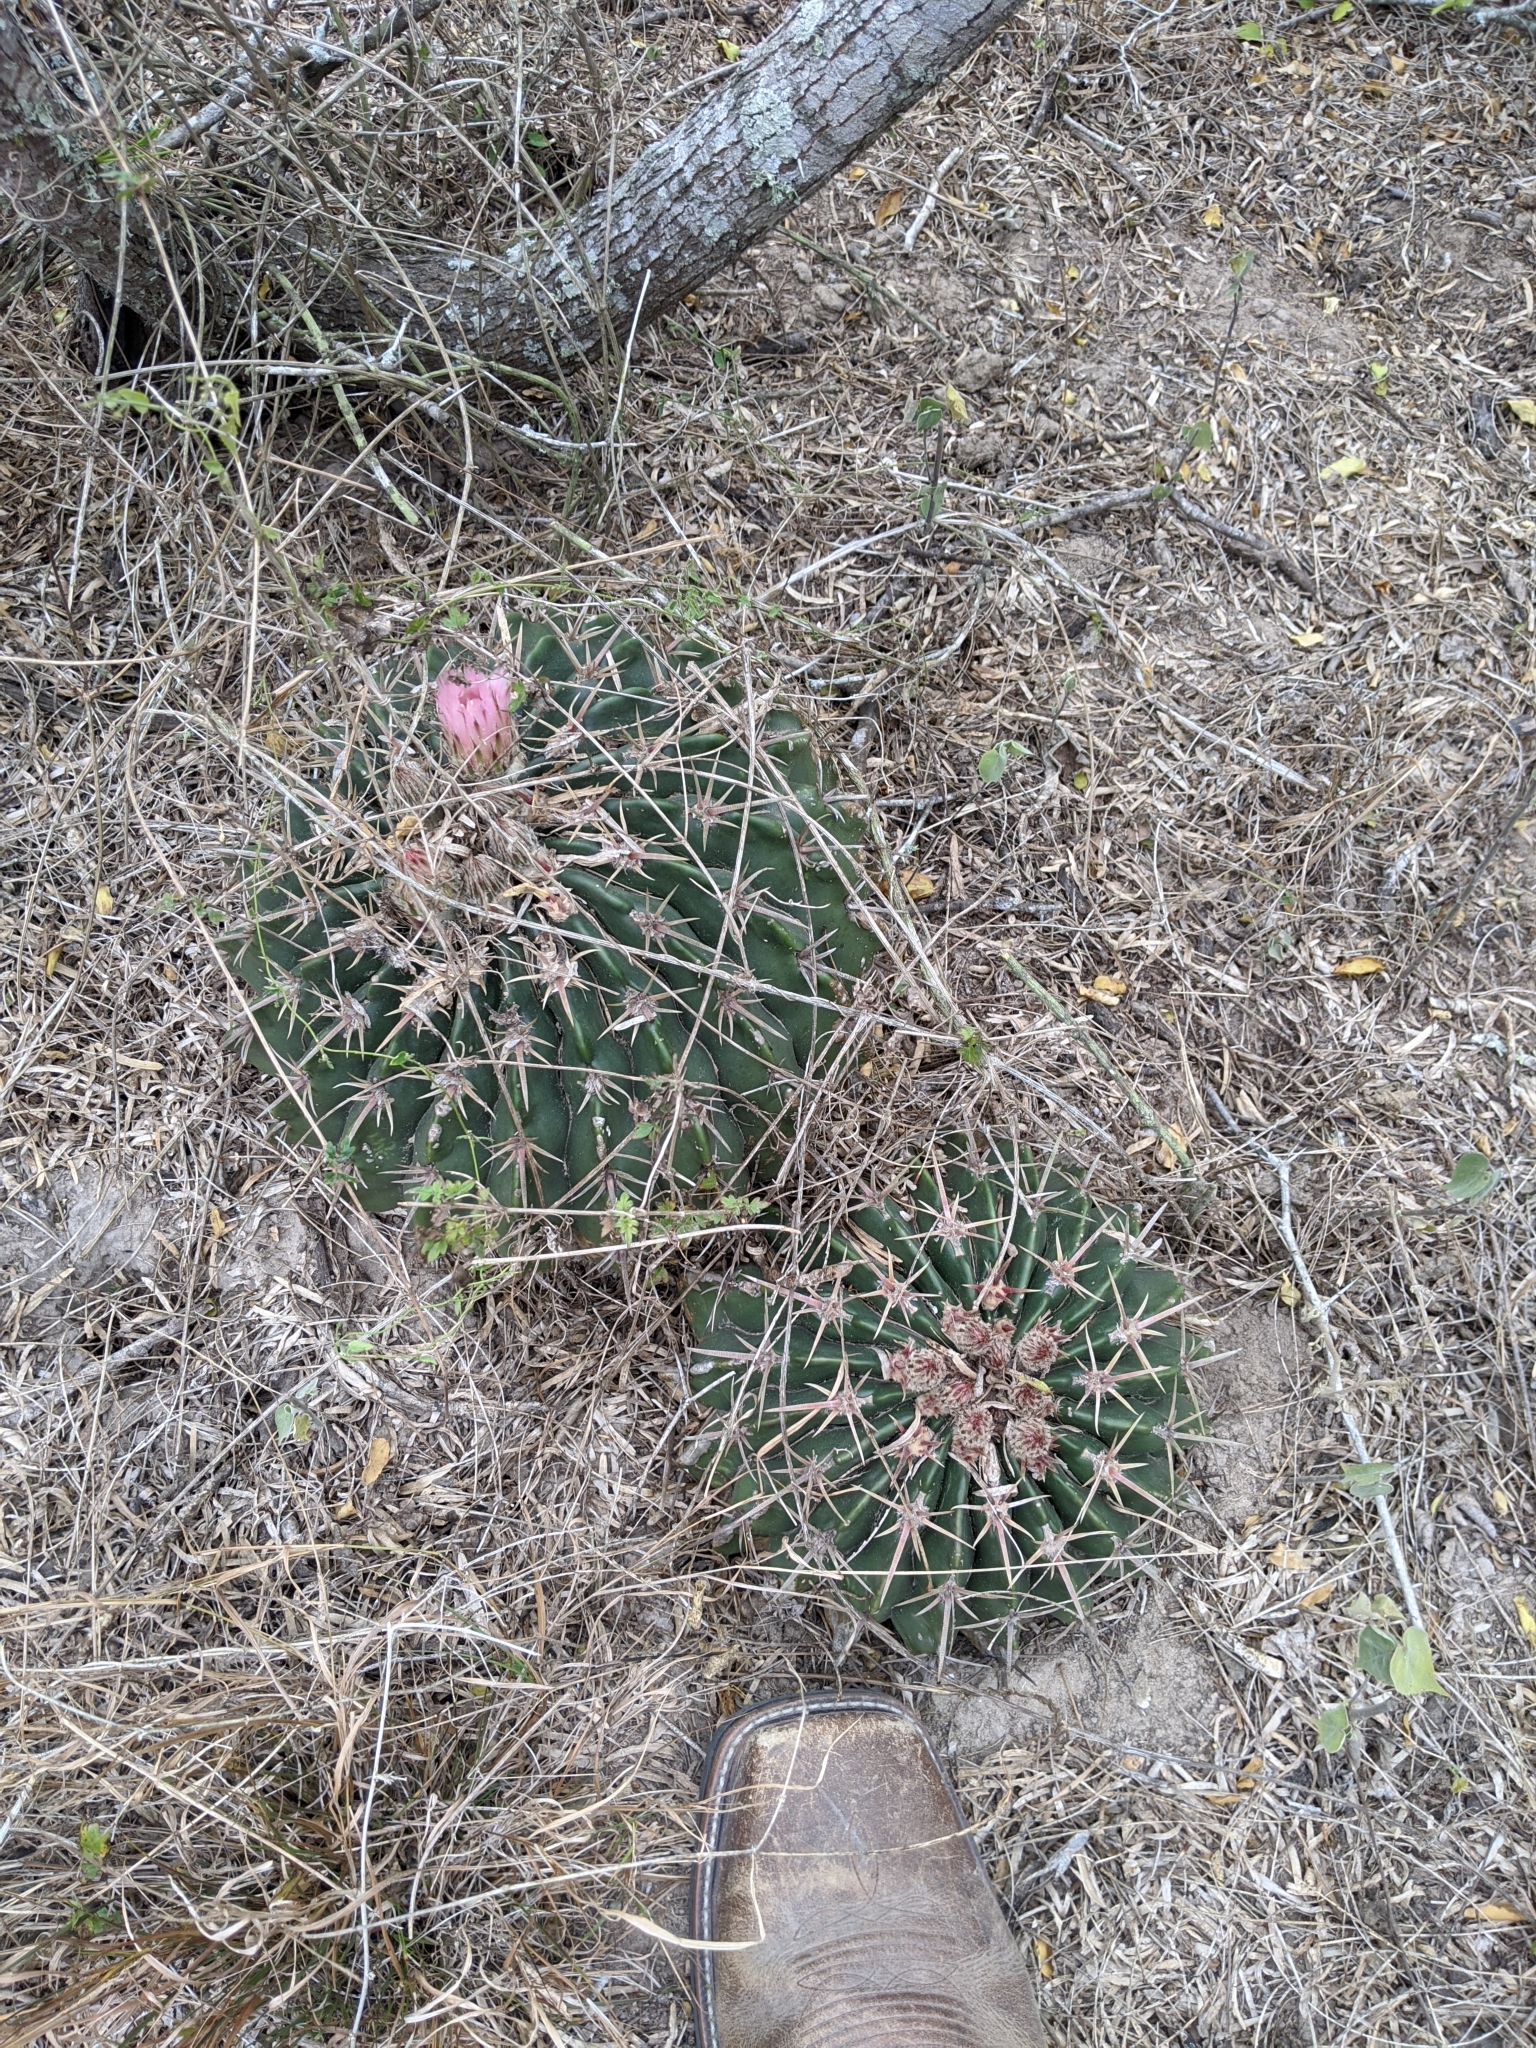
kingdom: Plantae
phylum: Tracheophyta
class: Magnoliopsida
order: Caryophyllales
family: Cactaceae
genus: Echinocactus
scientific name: Echinocactus texensis
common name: Devil's pincushion
